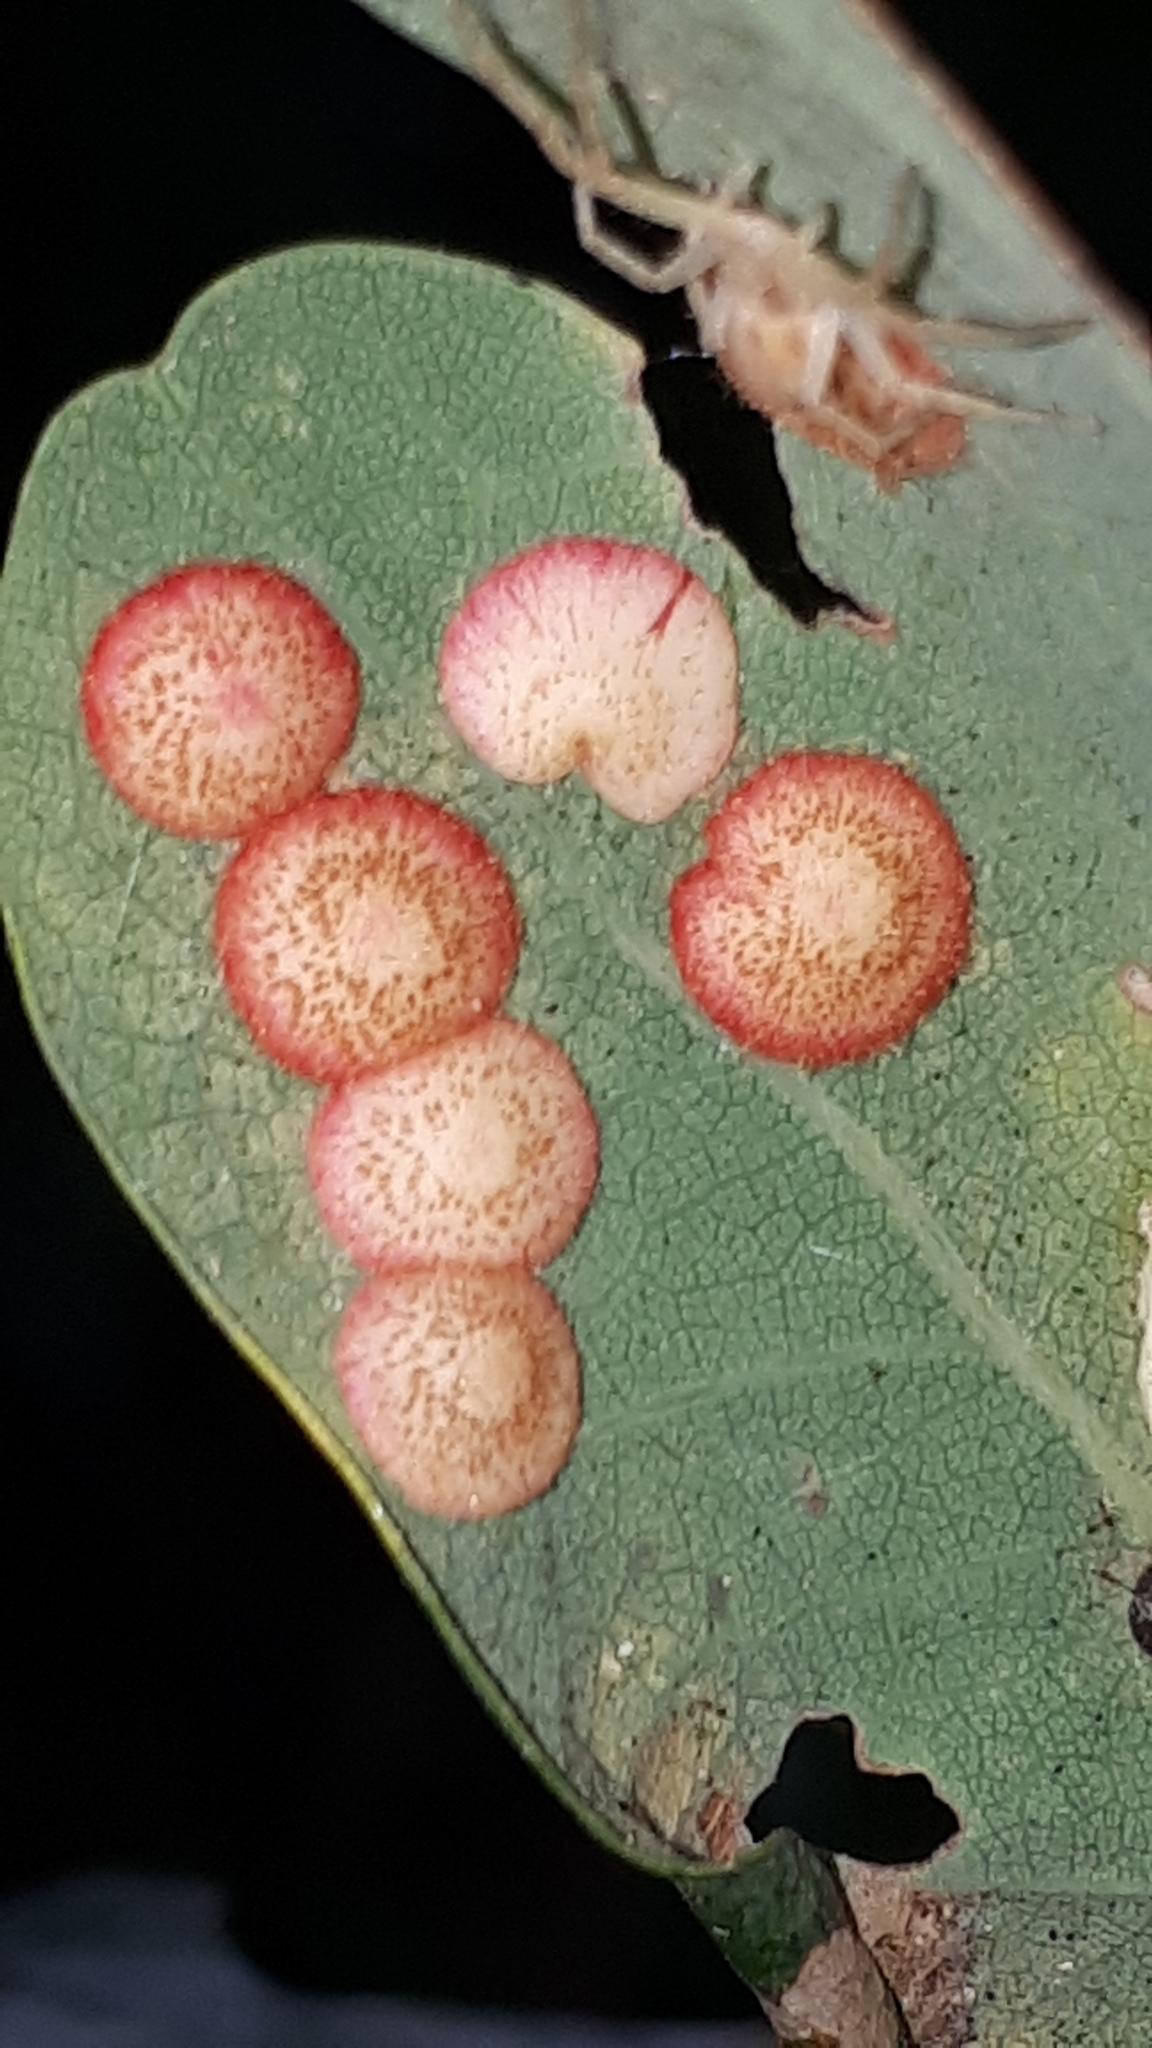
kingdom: Animalia
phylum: Arthropoda
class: Insecta
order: Hymenoptera
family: Cynipidae
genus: Neuroterus
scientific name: Neuroterus quercusbaccarum
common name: Common spangle gall
